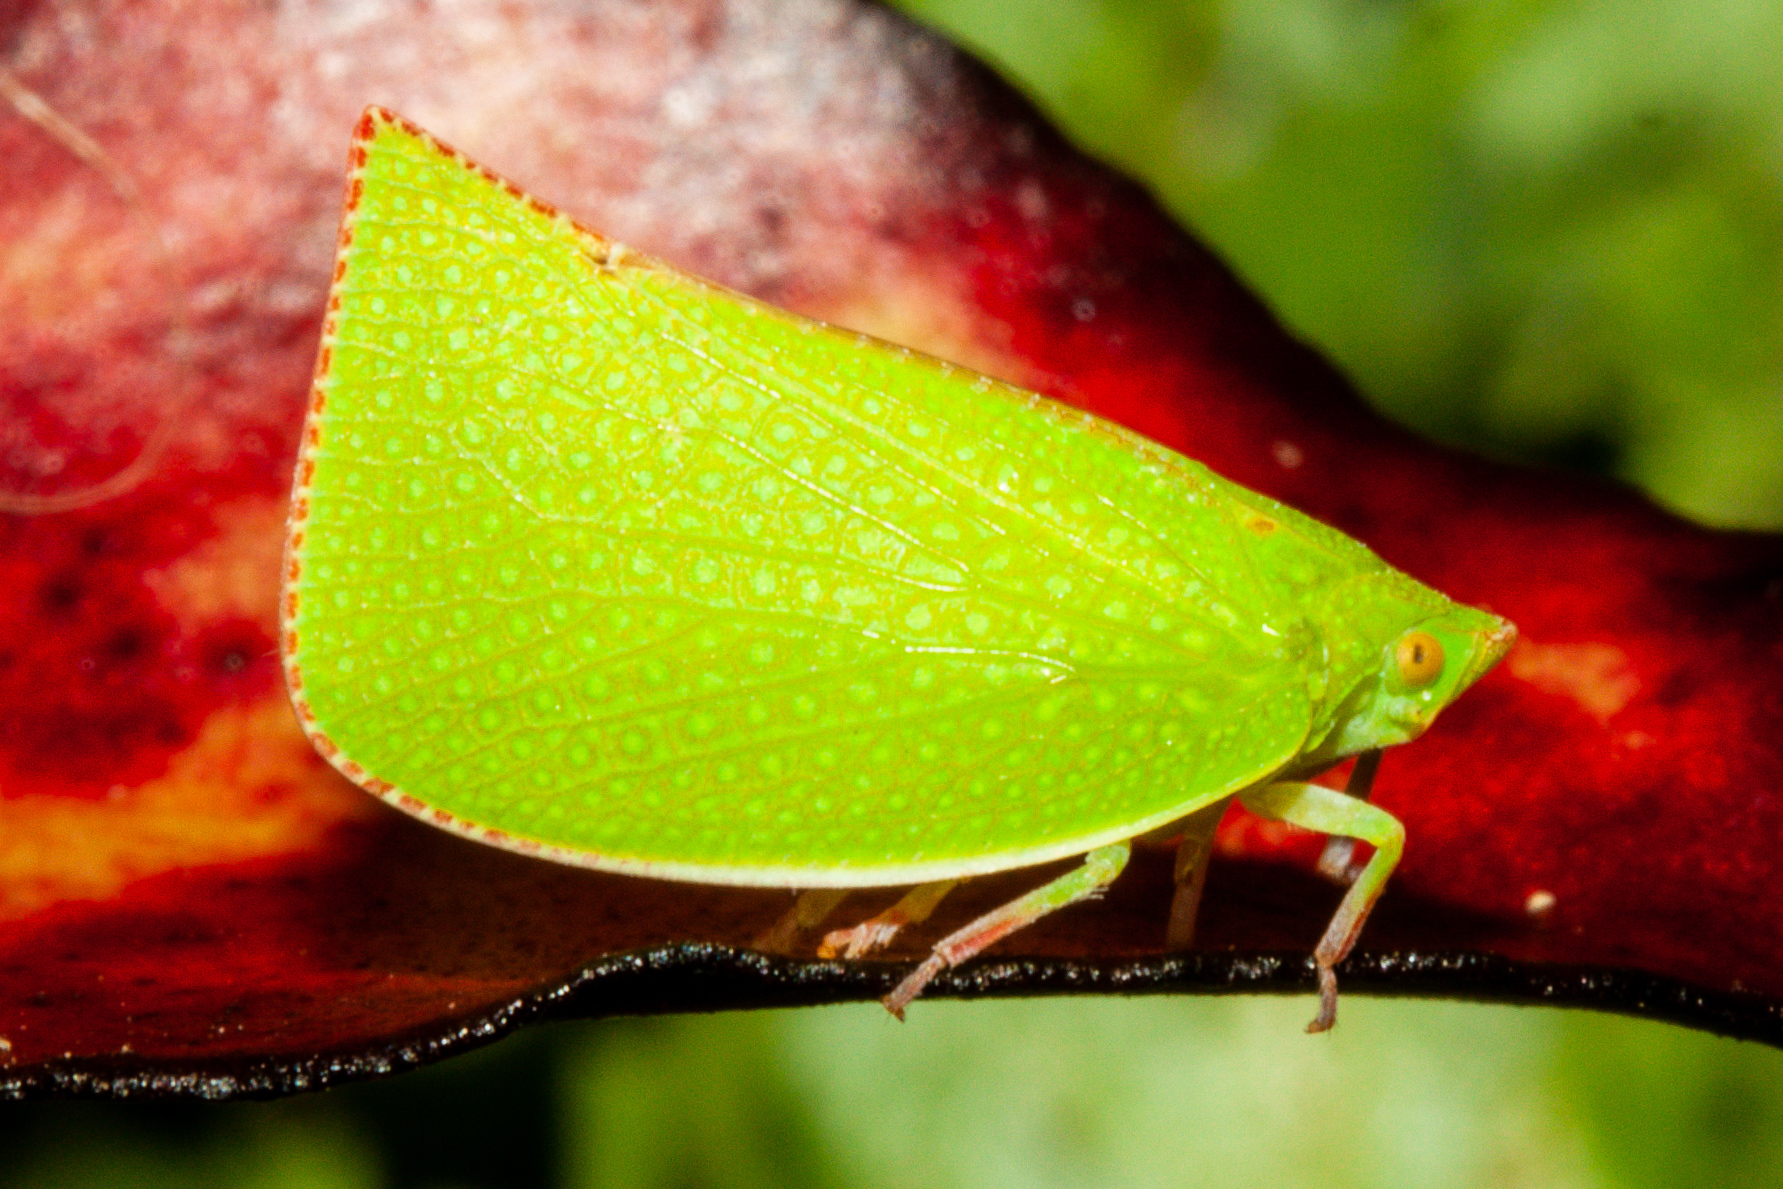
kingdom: Animalia
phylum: Arthropoda
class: Insecta
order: Hemiptera
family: Flatidae
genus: Siphanta
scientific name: Siphanta acuta
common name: Torpedo bug
